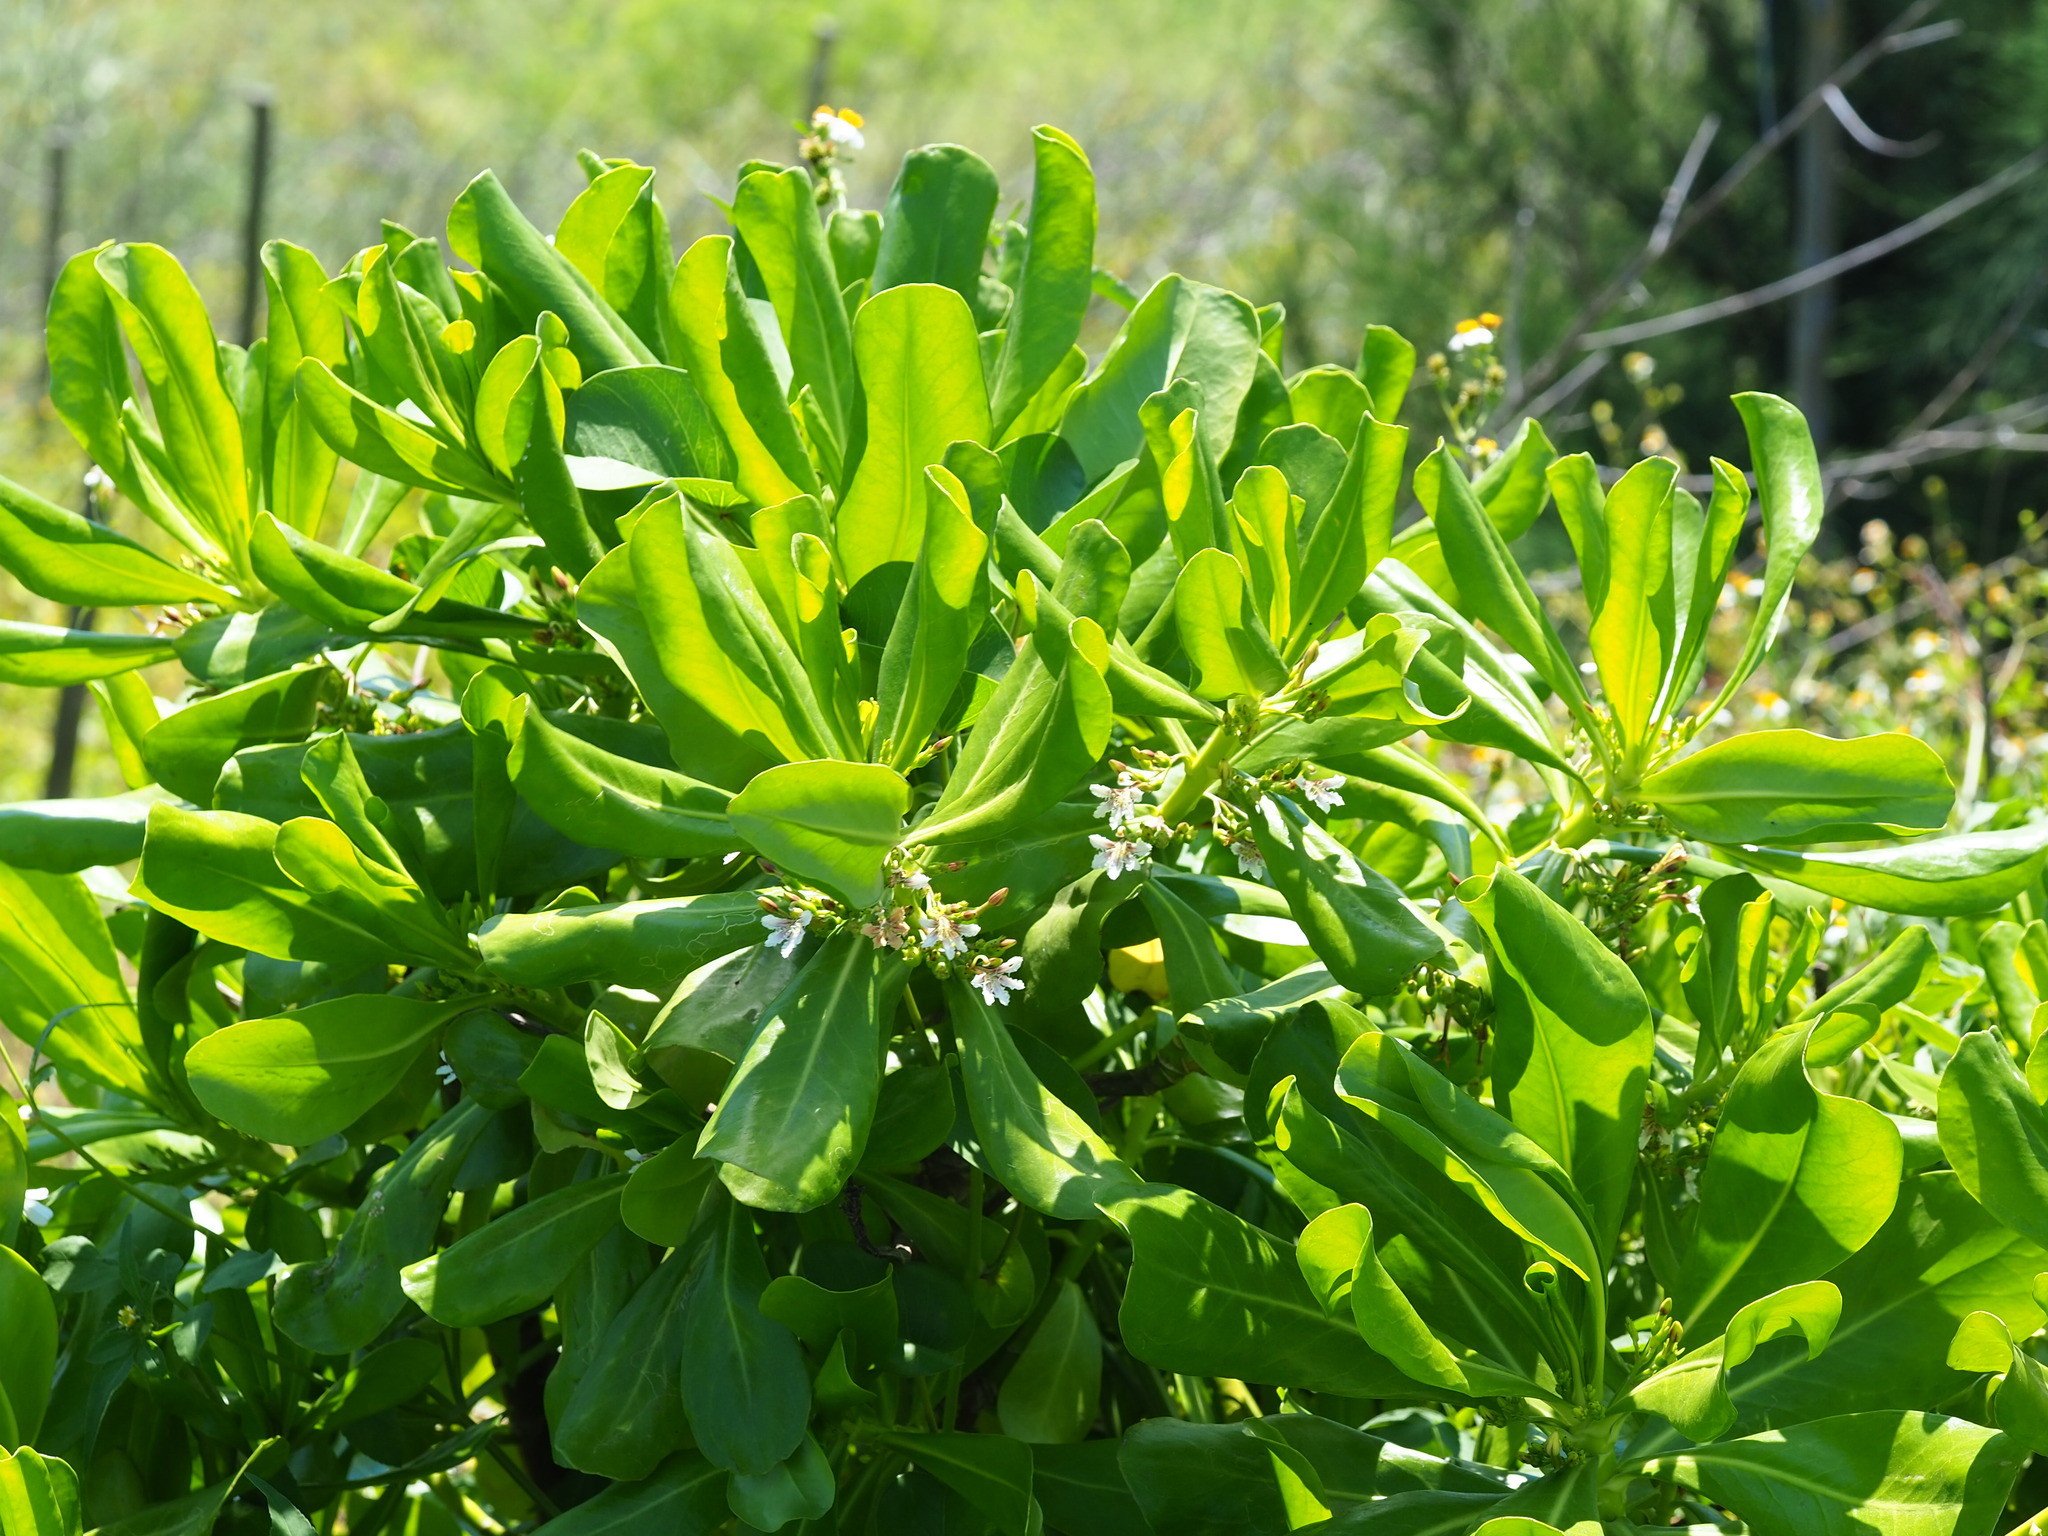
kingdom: Plantae
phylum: Tracheophyta
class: Magnoliopsida
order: Asterales
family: Goodeniaceae
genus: Scaevola
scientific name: Scaevola taccada
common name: Sea lettucetree
